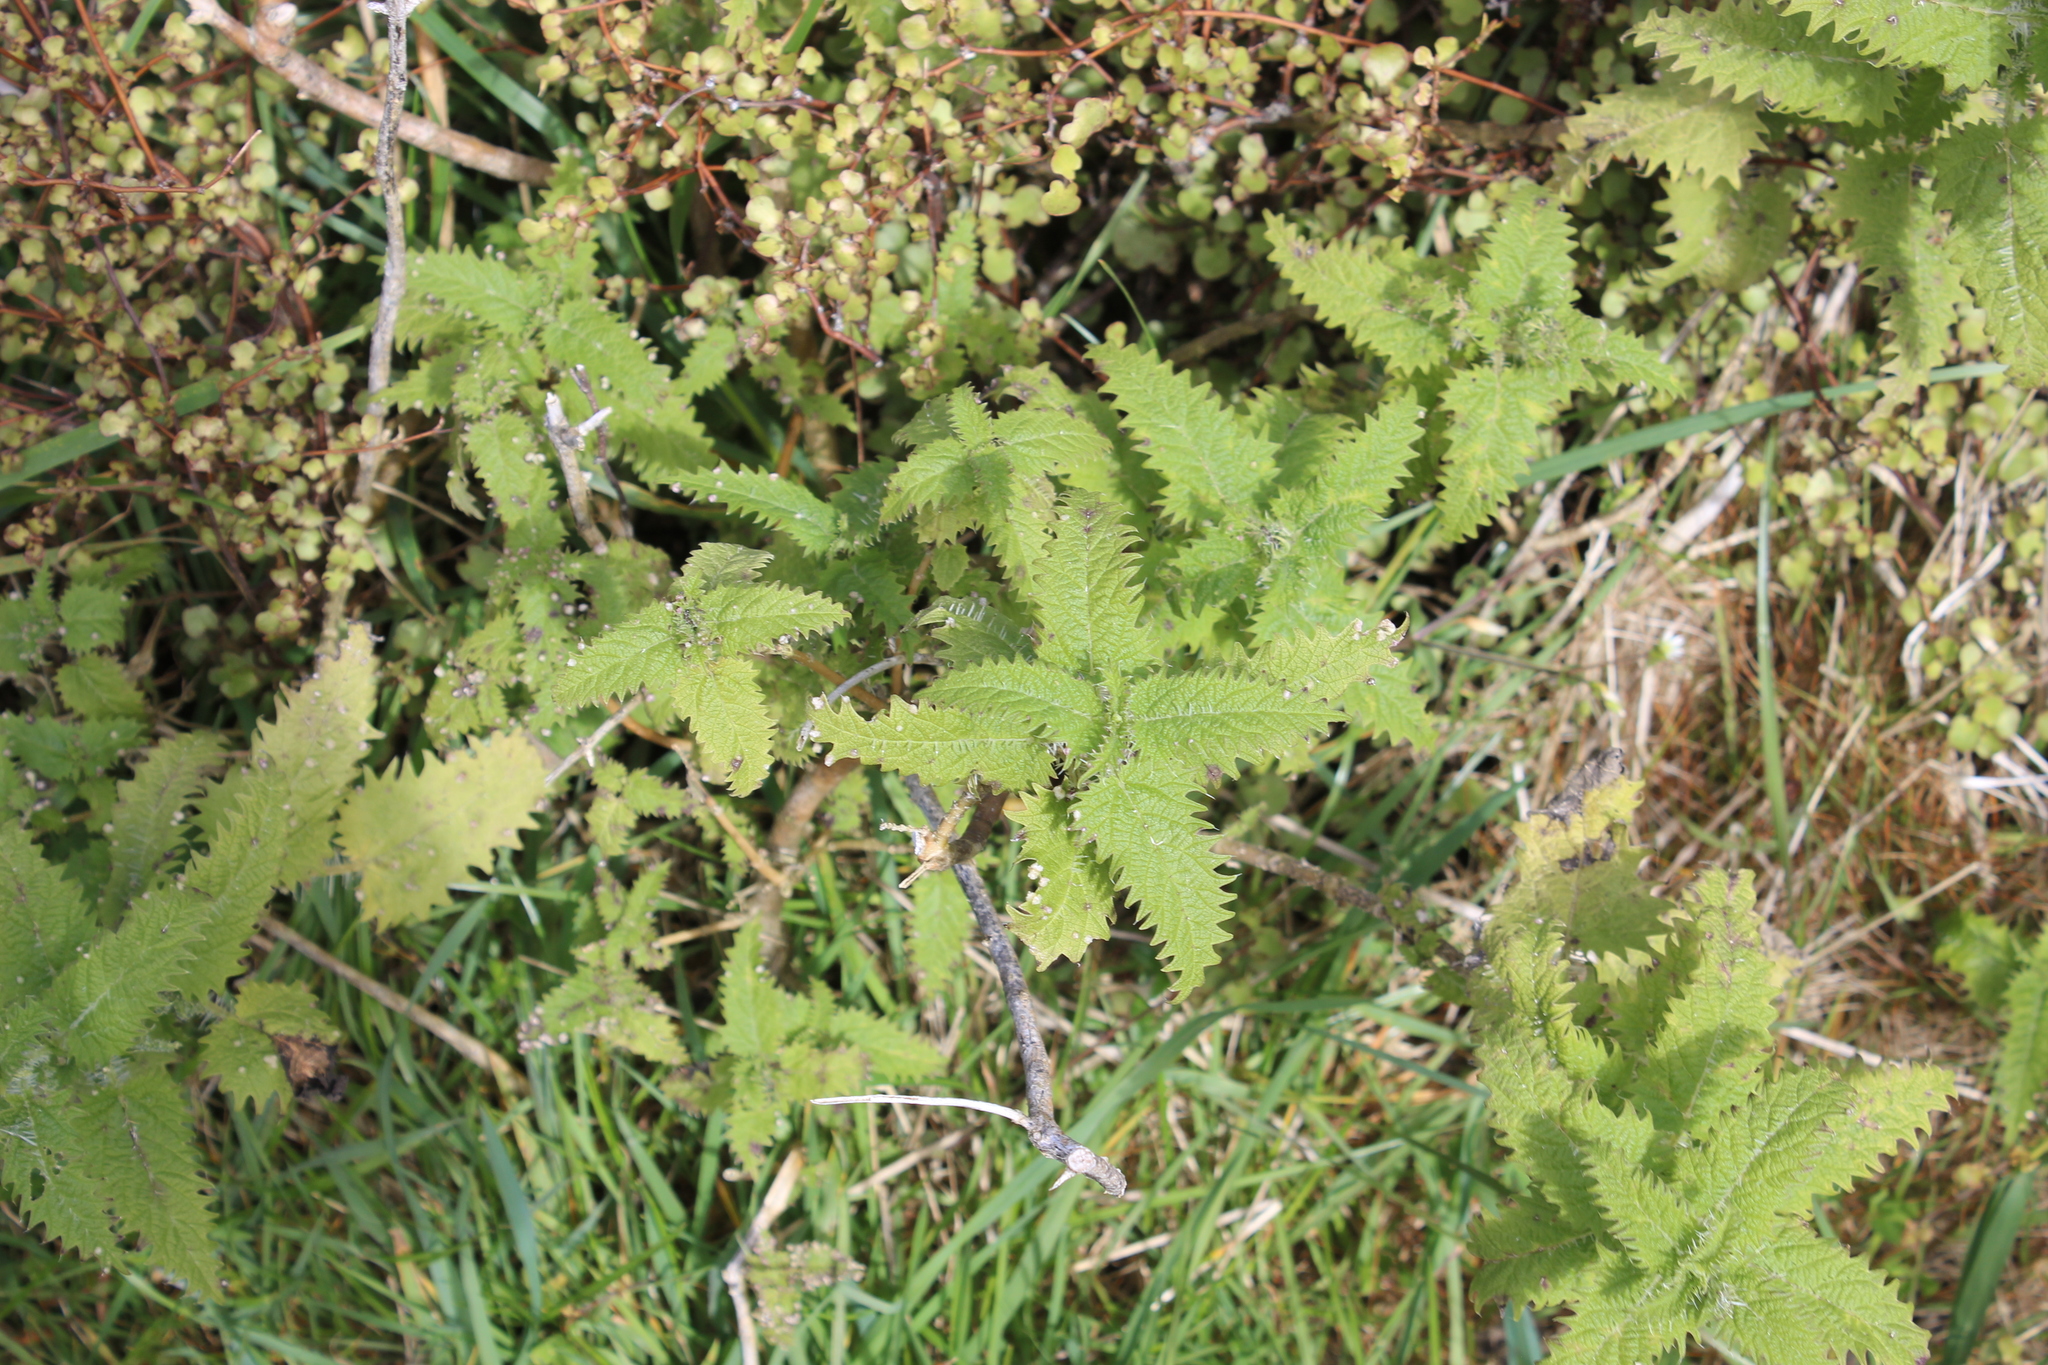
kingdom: Plantae
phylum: Tracheophyta
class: Magnoliopsida
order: Rosales
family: Urticaceae
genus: Urtica
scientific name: Urtica ferox
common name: Tree nettle
